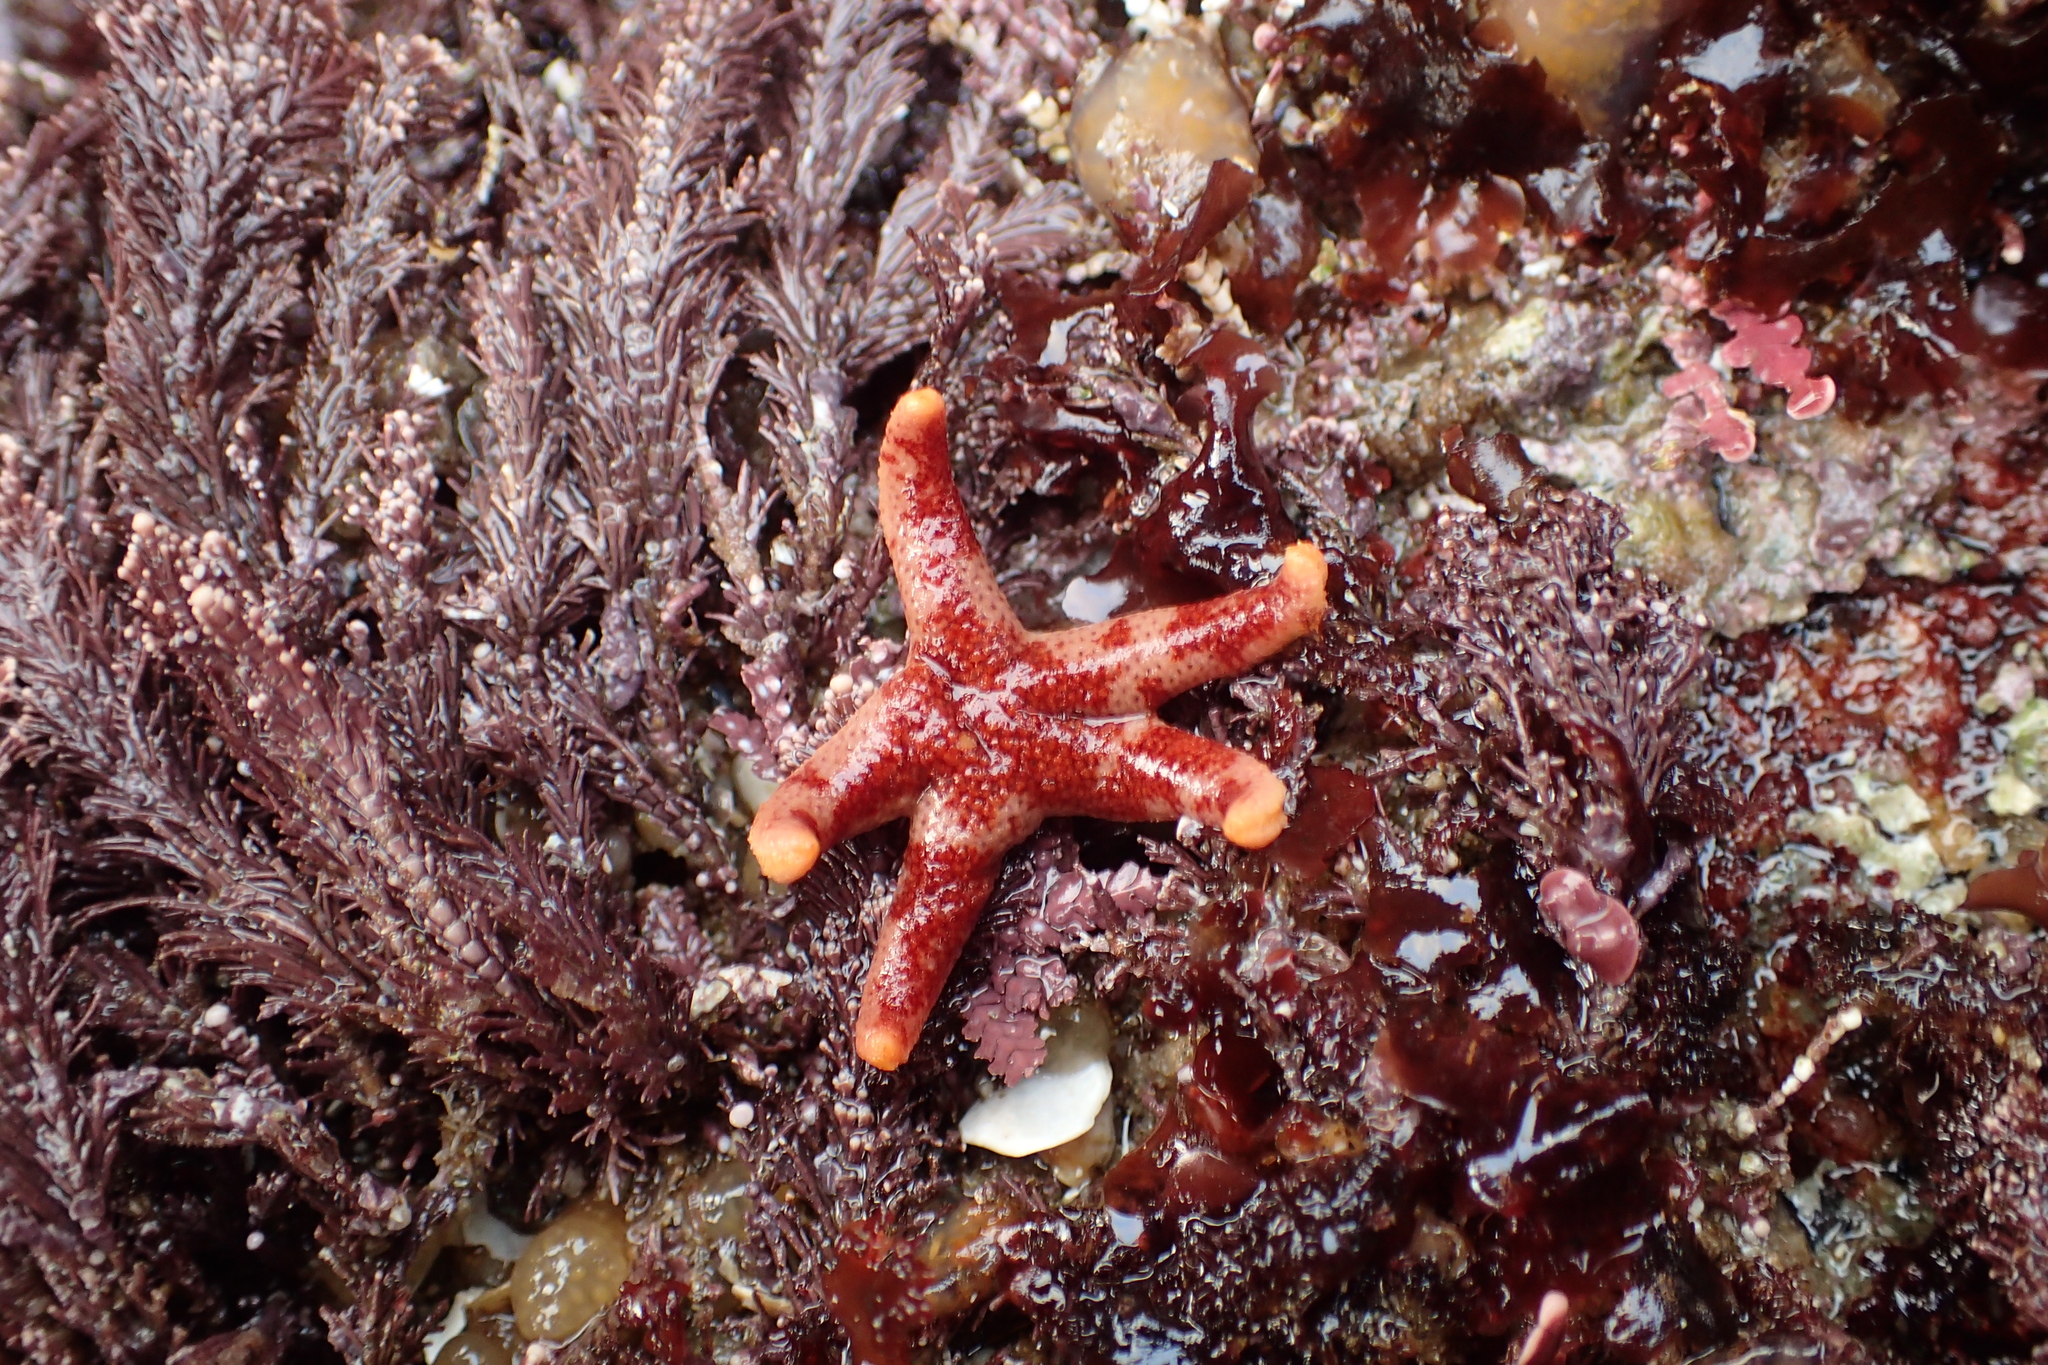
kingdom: Animalia
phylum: Echinodermata
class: Asteroidea
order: Spinulosida
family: Echinasteridae
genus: Henricia
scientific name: Henricia pumila
